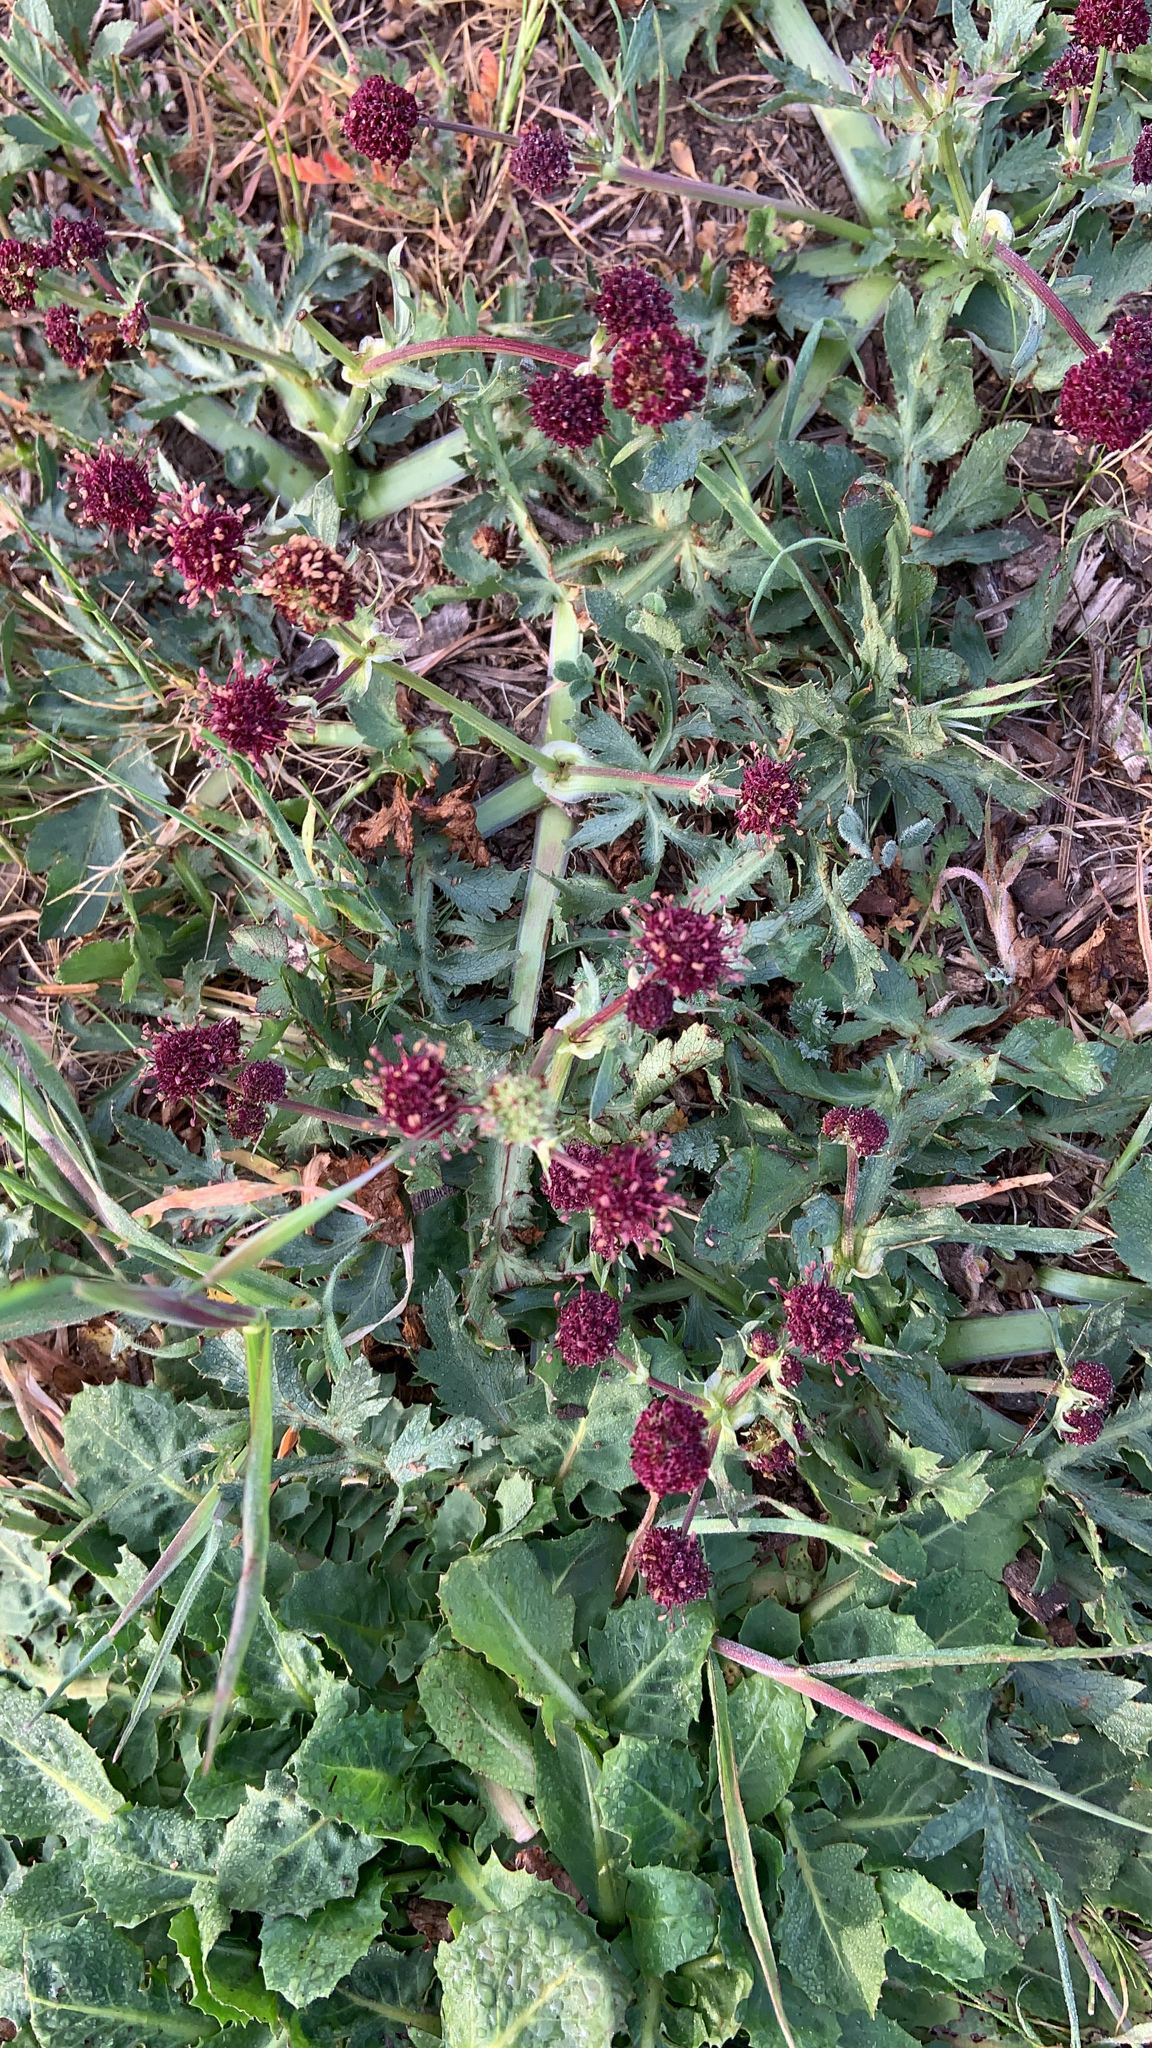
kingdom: Plantae
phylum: Tracheophyta
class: Magnoliopsida
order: Apiales
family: Apiaceae
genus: Sanicula
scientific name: Sanicula bipinnatifida
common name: Shoe-buttons
